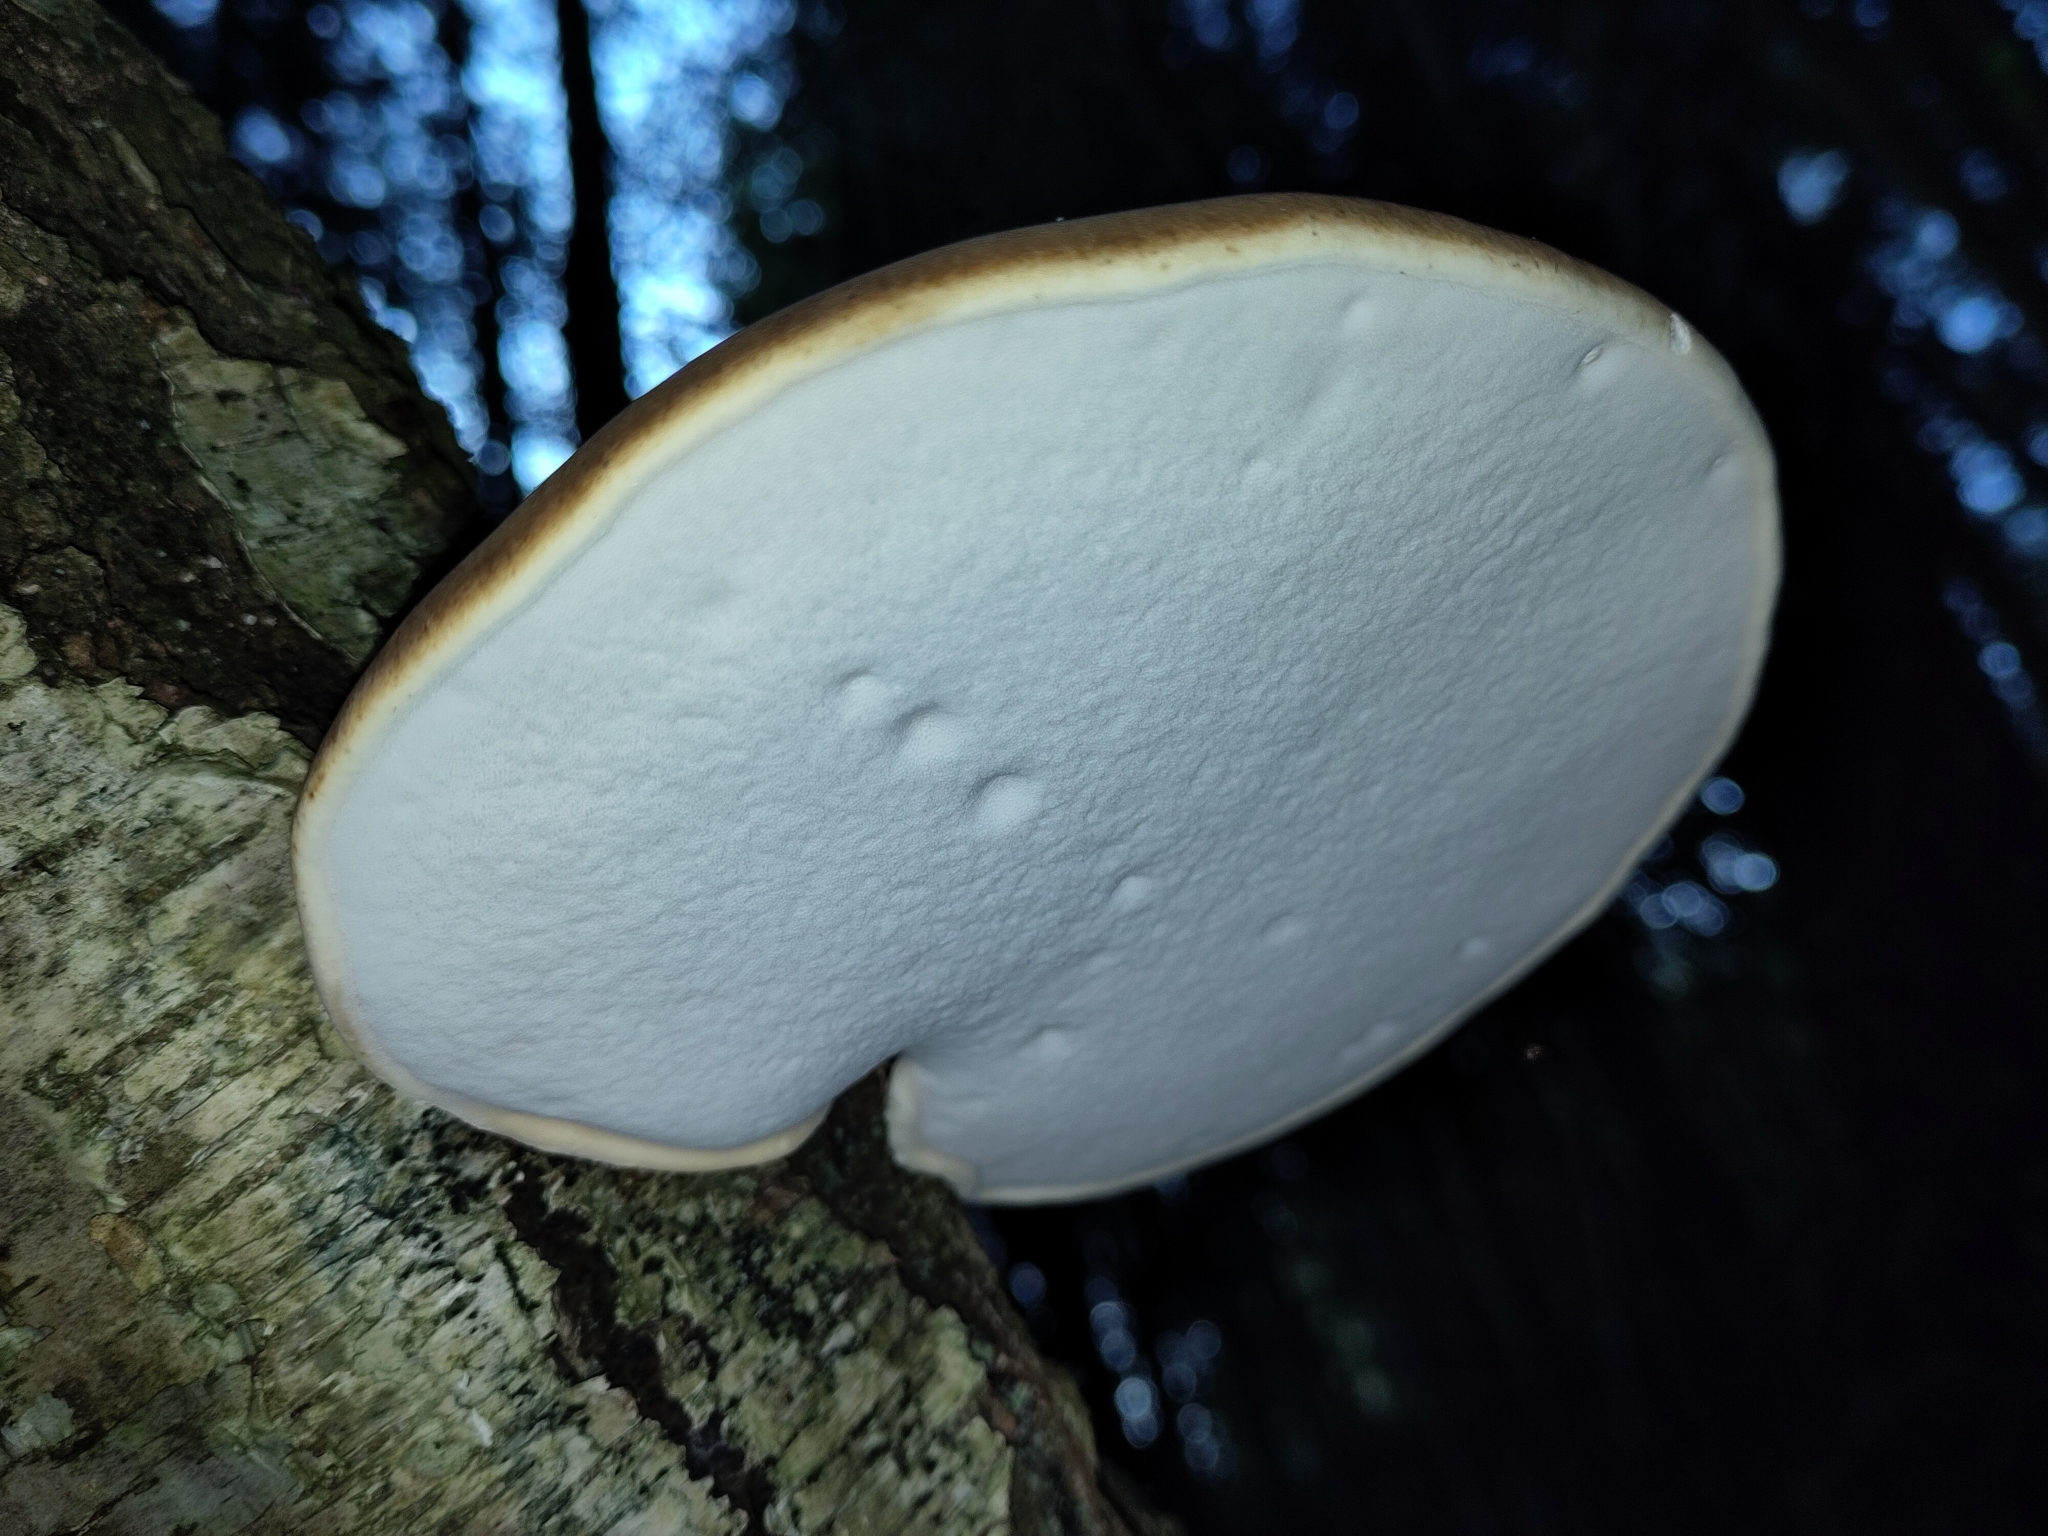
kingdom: Fungi
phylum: Basidiomycota
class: Agaricomycetes
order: Polyporales
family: Fomitopsidaceae
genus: Fomitopsis
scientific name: Fomitopsis betulina
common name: Birch polypore
